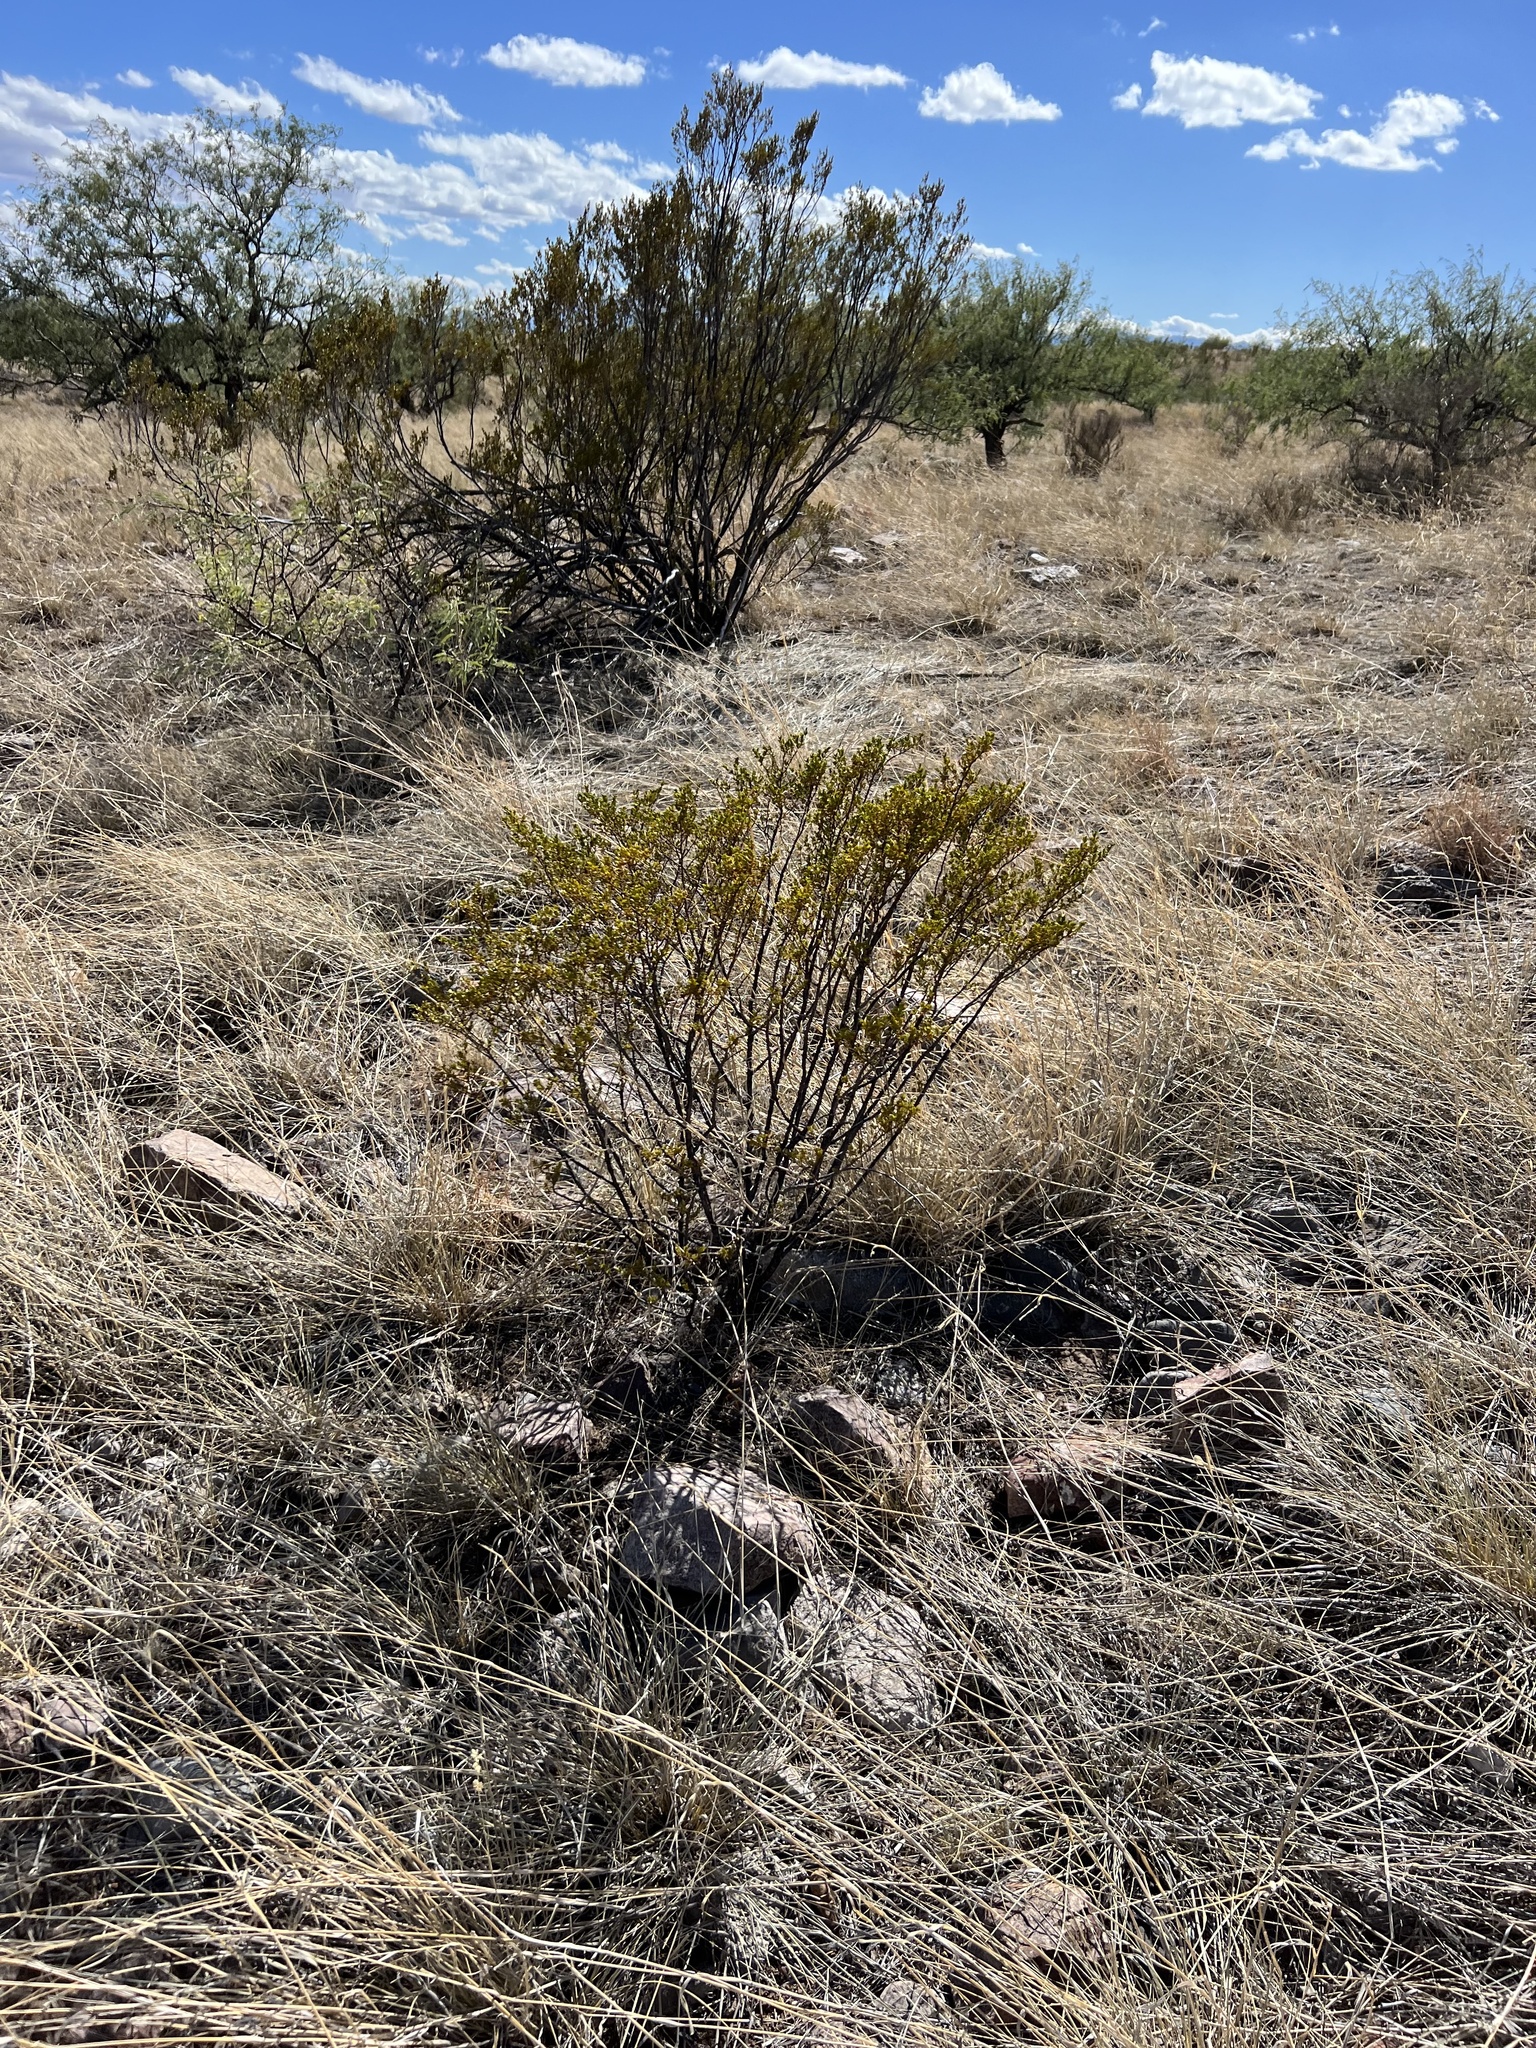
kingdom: Plantae
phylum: Tracheophyta
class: Magnoliopsida
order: Zygophyllales
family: Zygophyllaceae
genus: Larrea
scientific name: Larrea tridentata
